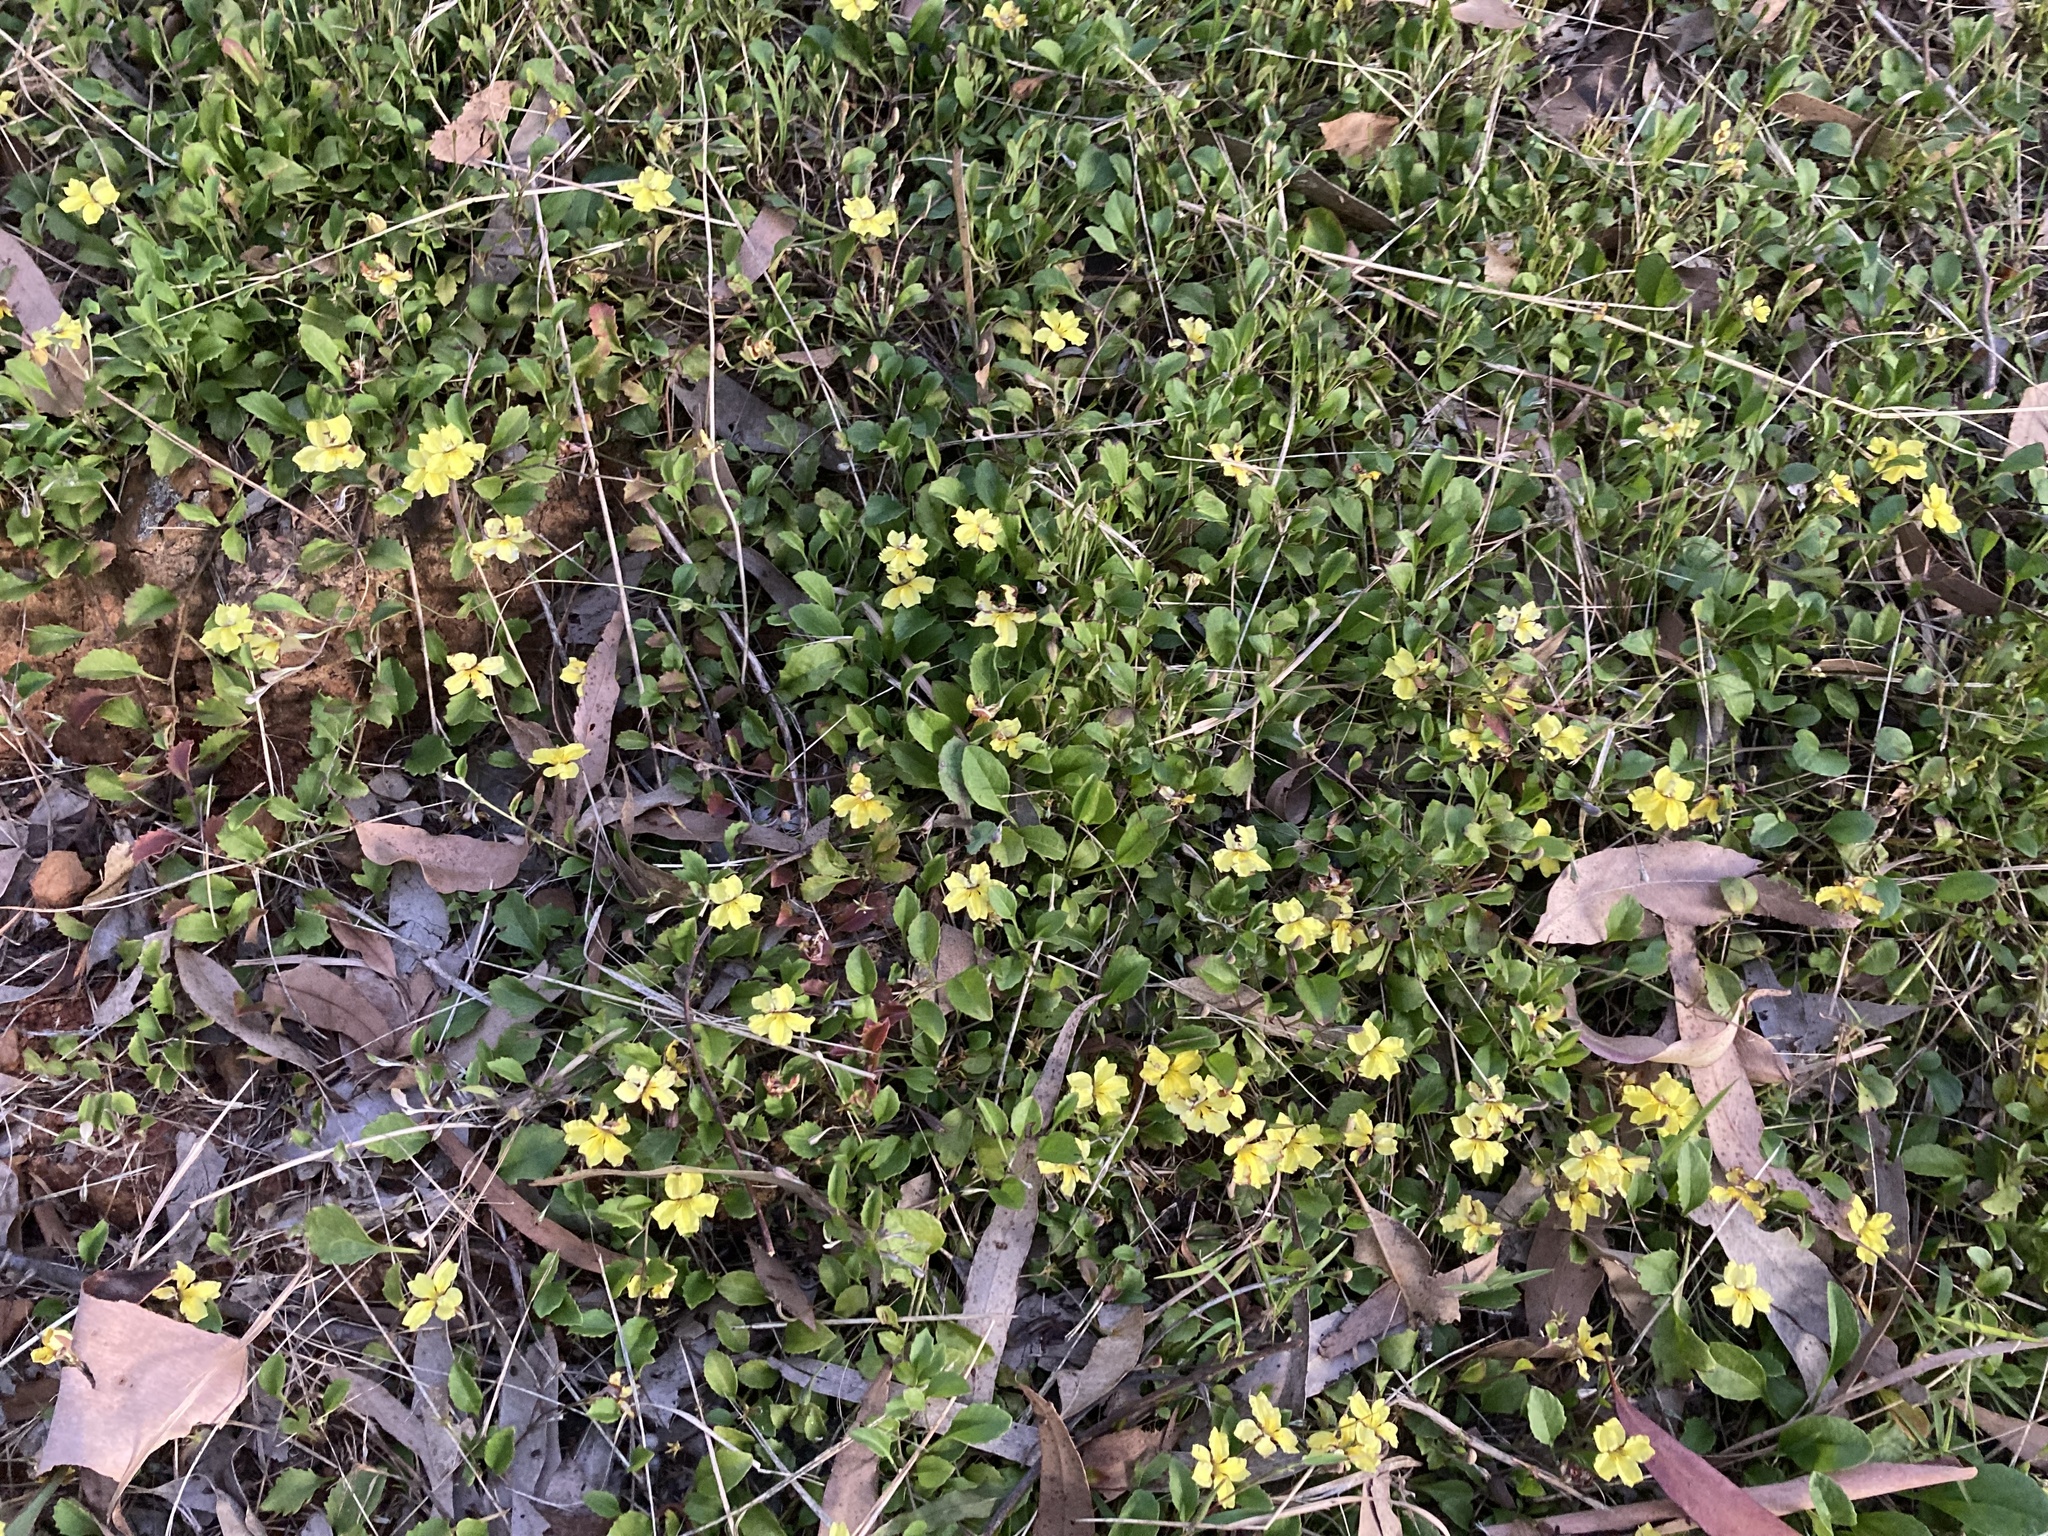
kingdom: Plantae
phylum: Tracheophyta
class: Magnoliopsida
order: Asterales
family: Goodeniaceae
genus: Goodenia
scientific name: Goodenia hederacea
